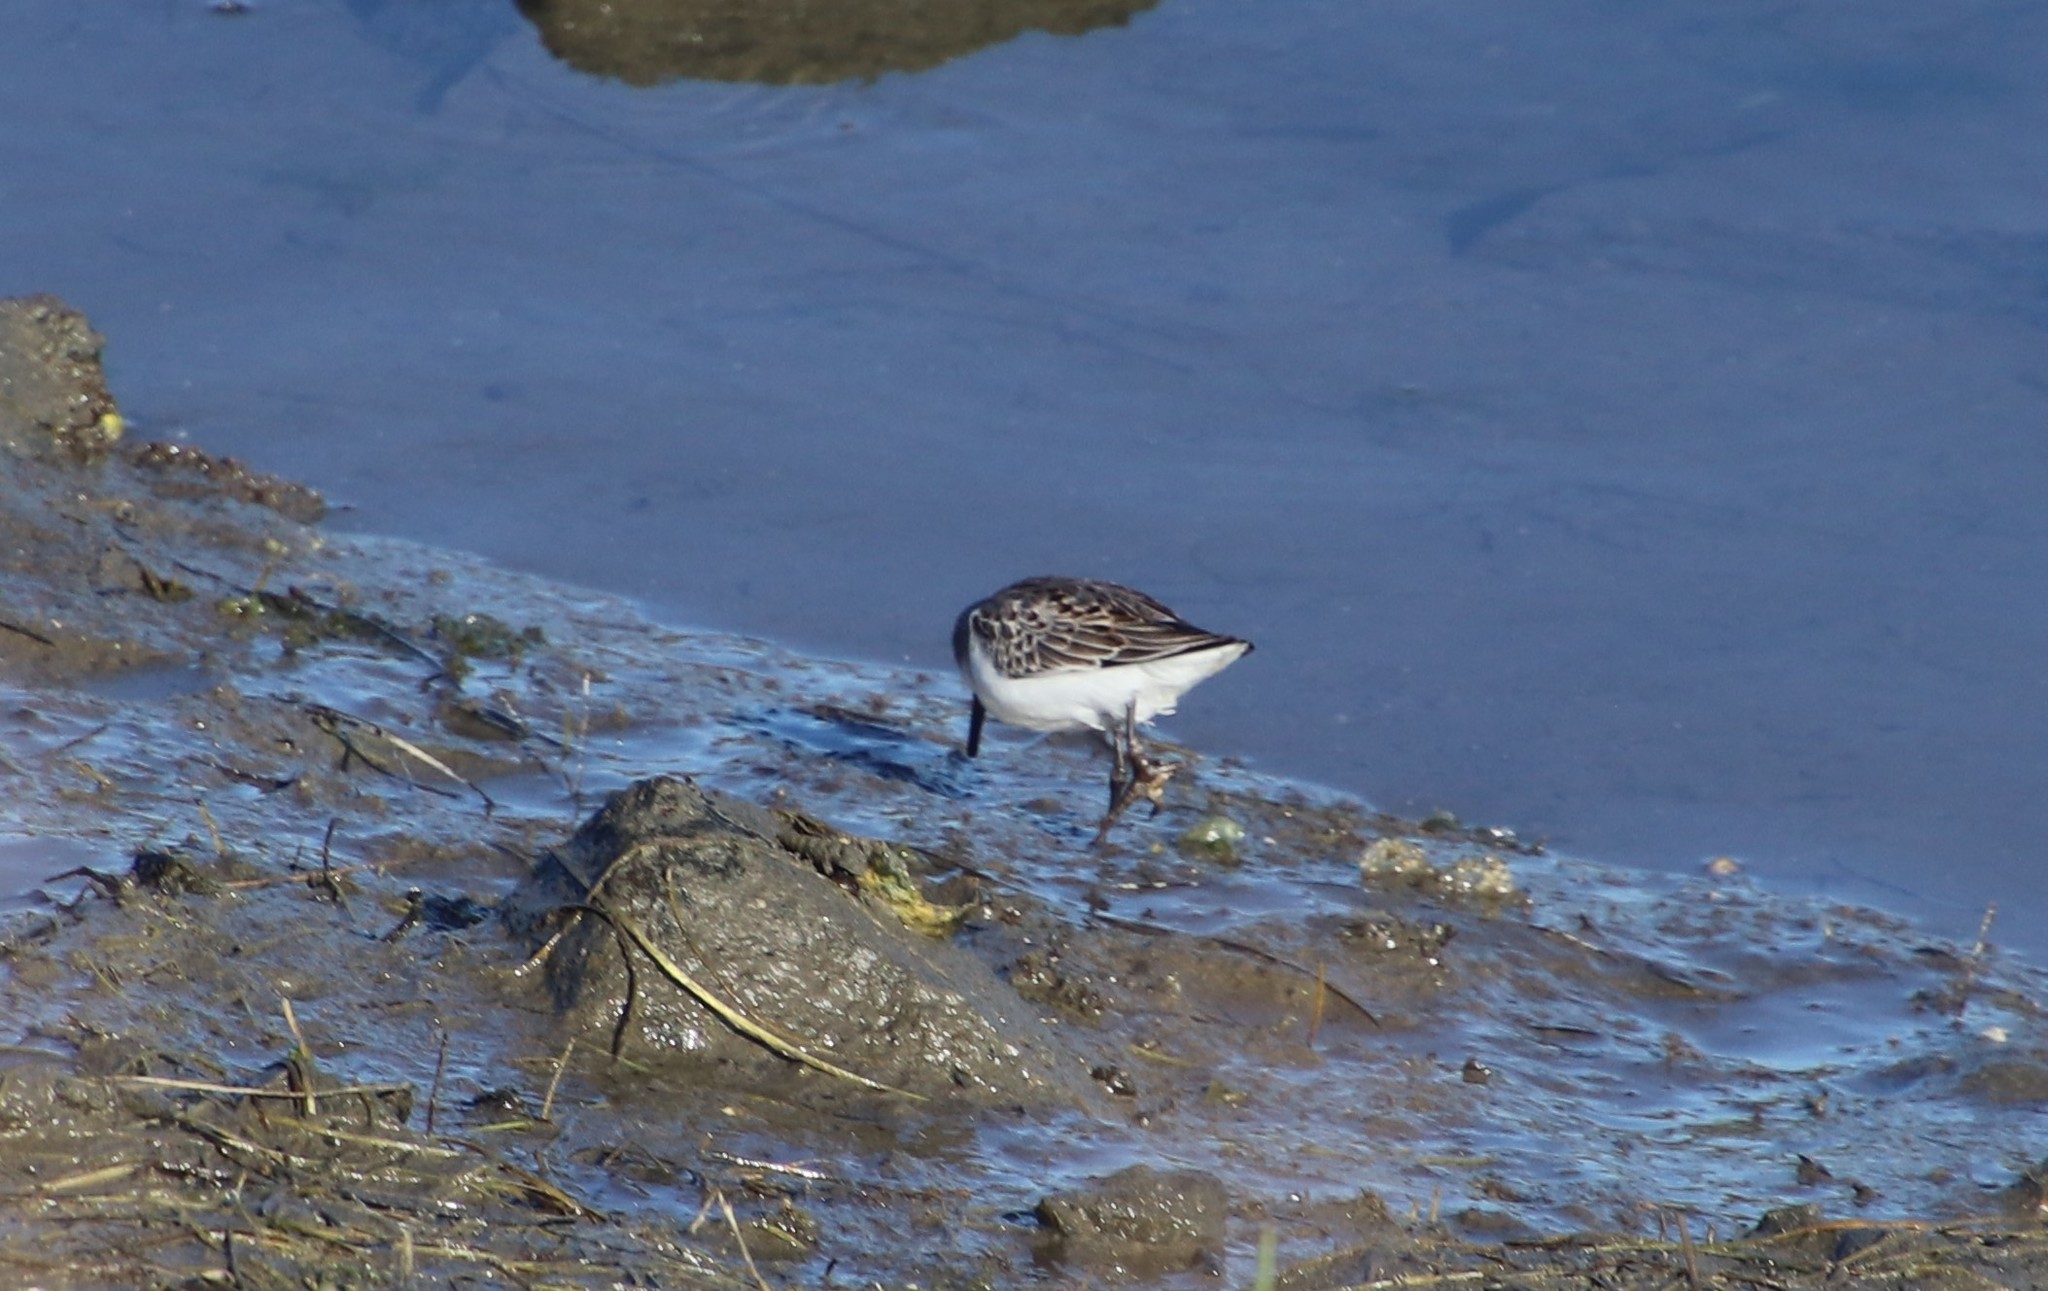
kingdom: Animalia
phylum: Chordata
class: Aves
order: Charadriiformes
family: Scolopacidae
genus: Calidris
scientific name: Calidris mauri
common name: Western sandpiper
